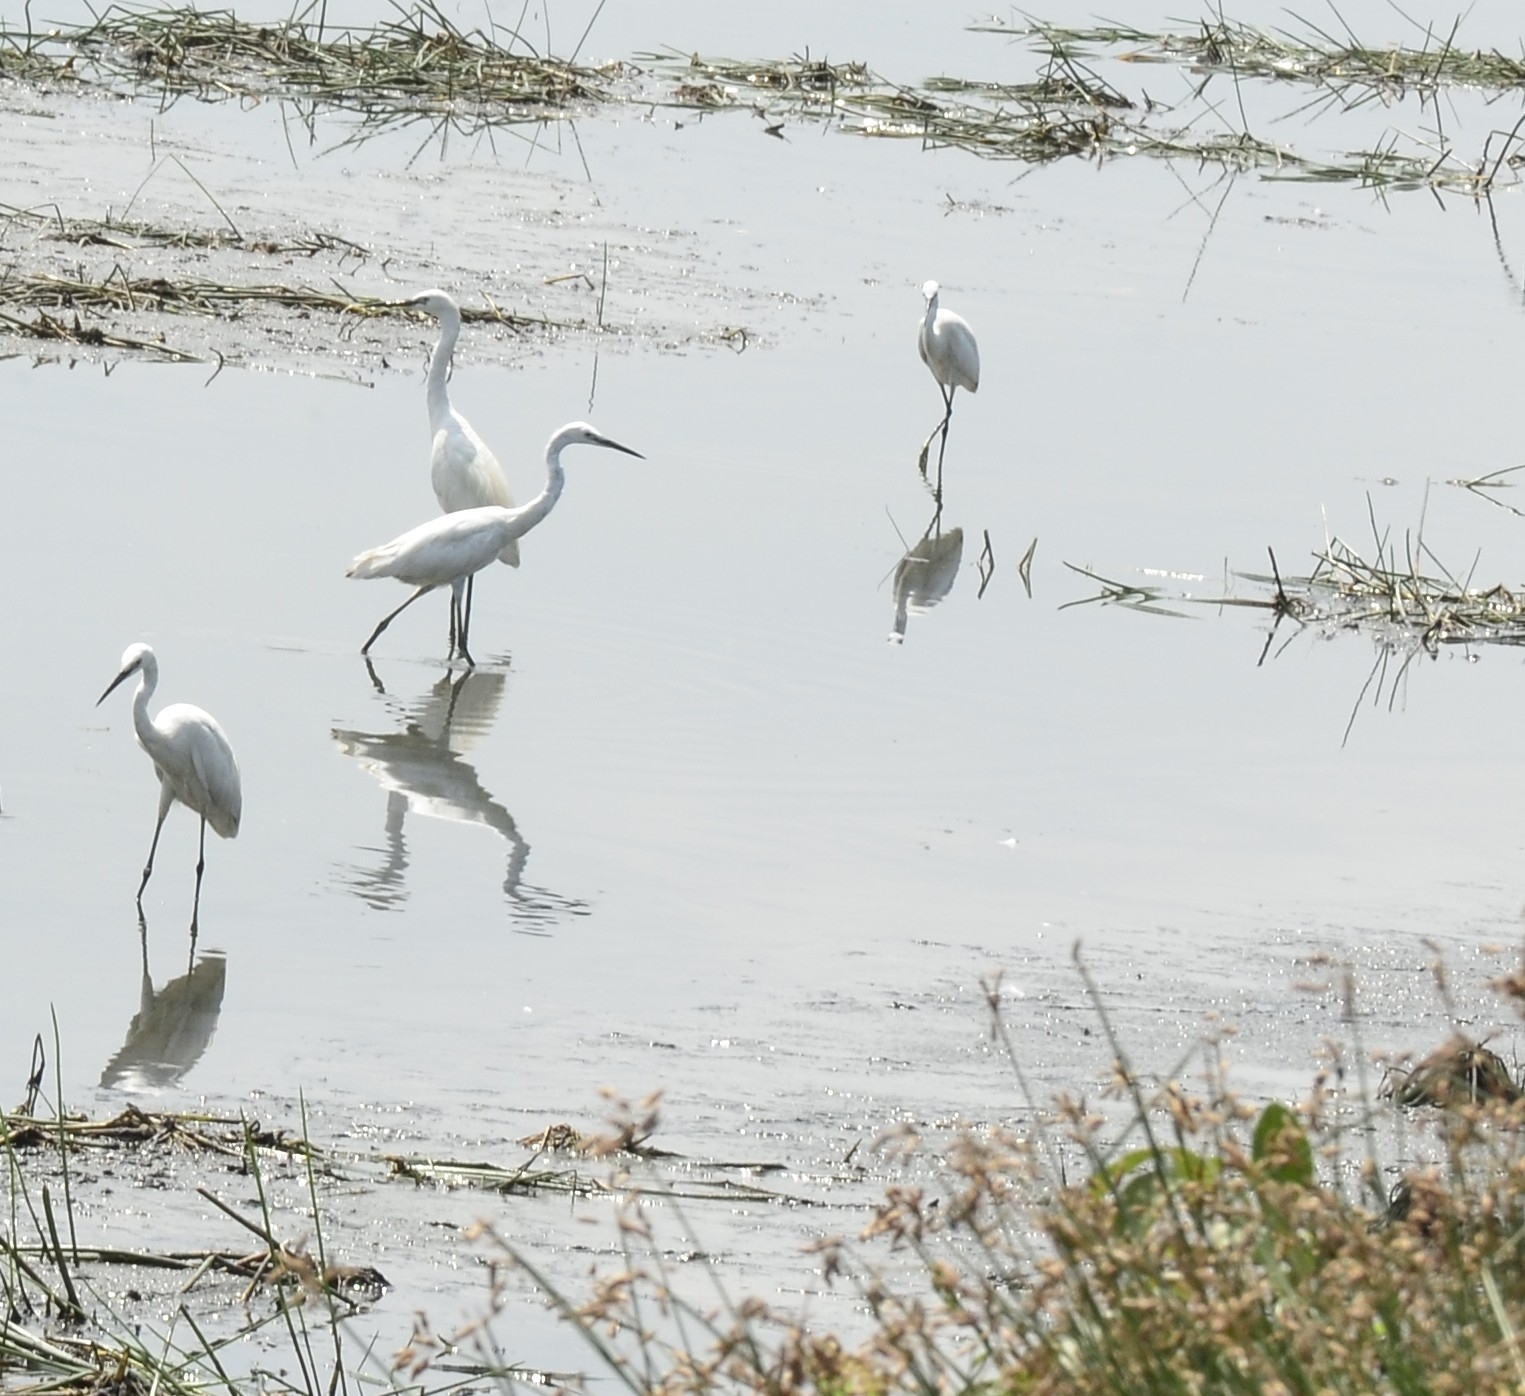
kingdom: Animalia
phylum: Chordata
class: Aves
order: Pelecaniformes
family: Ardeidae
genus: Egretta
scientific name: Egretta garzetta
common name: Little egret
